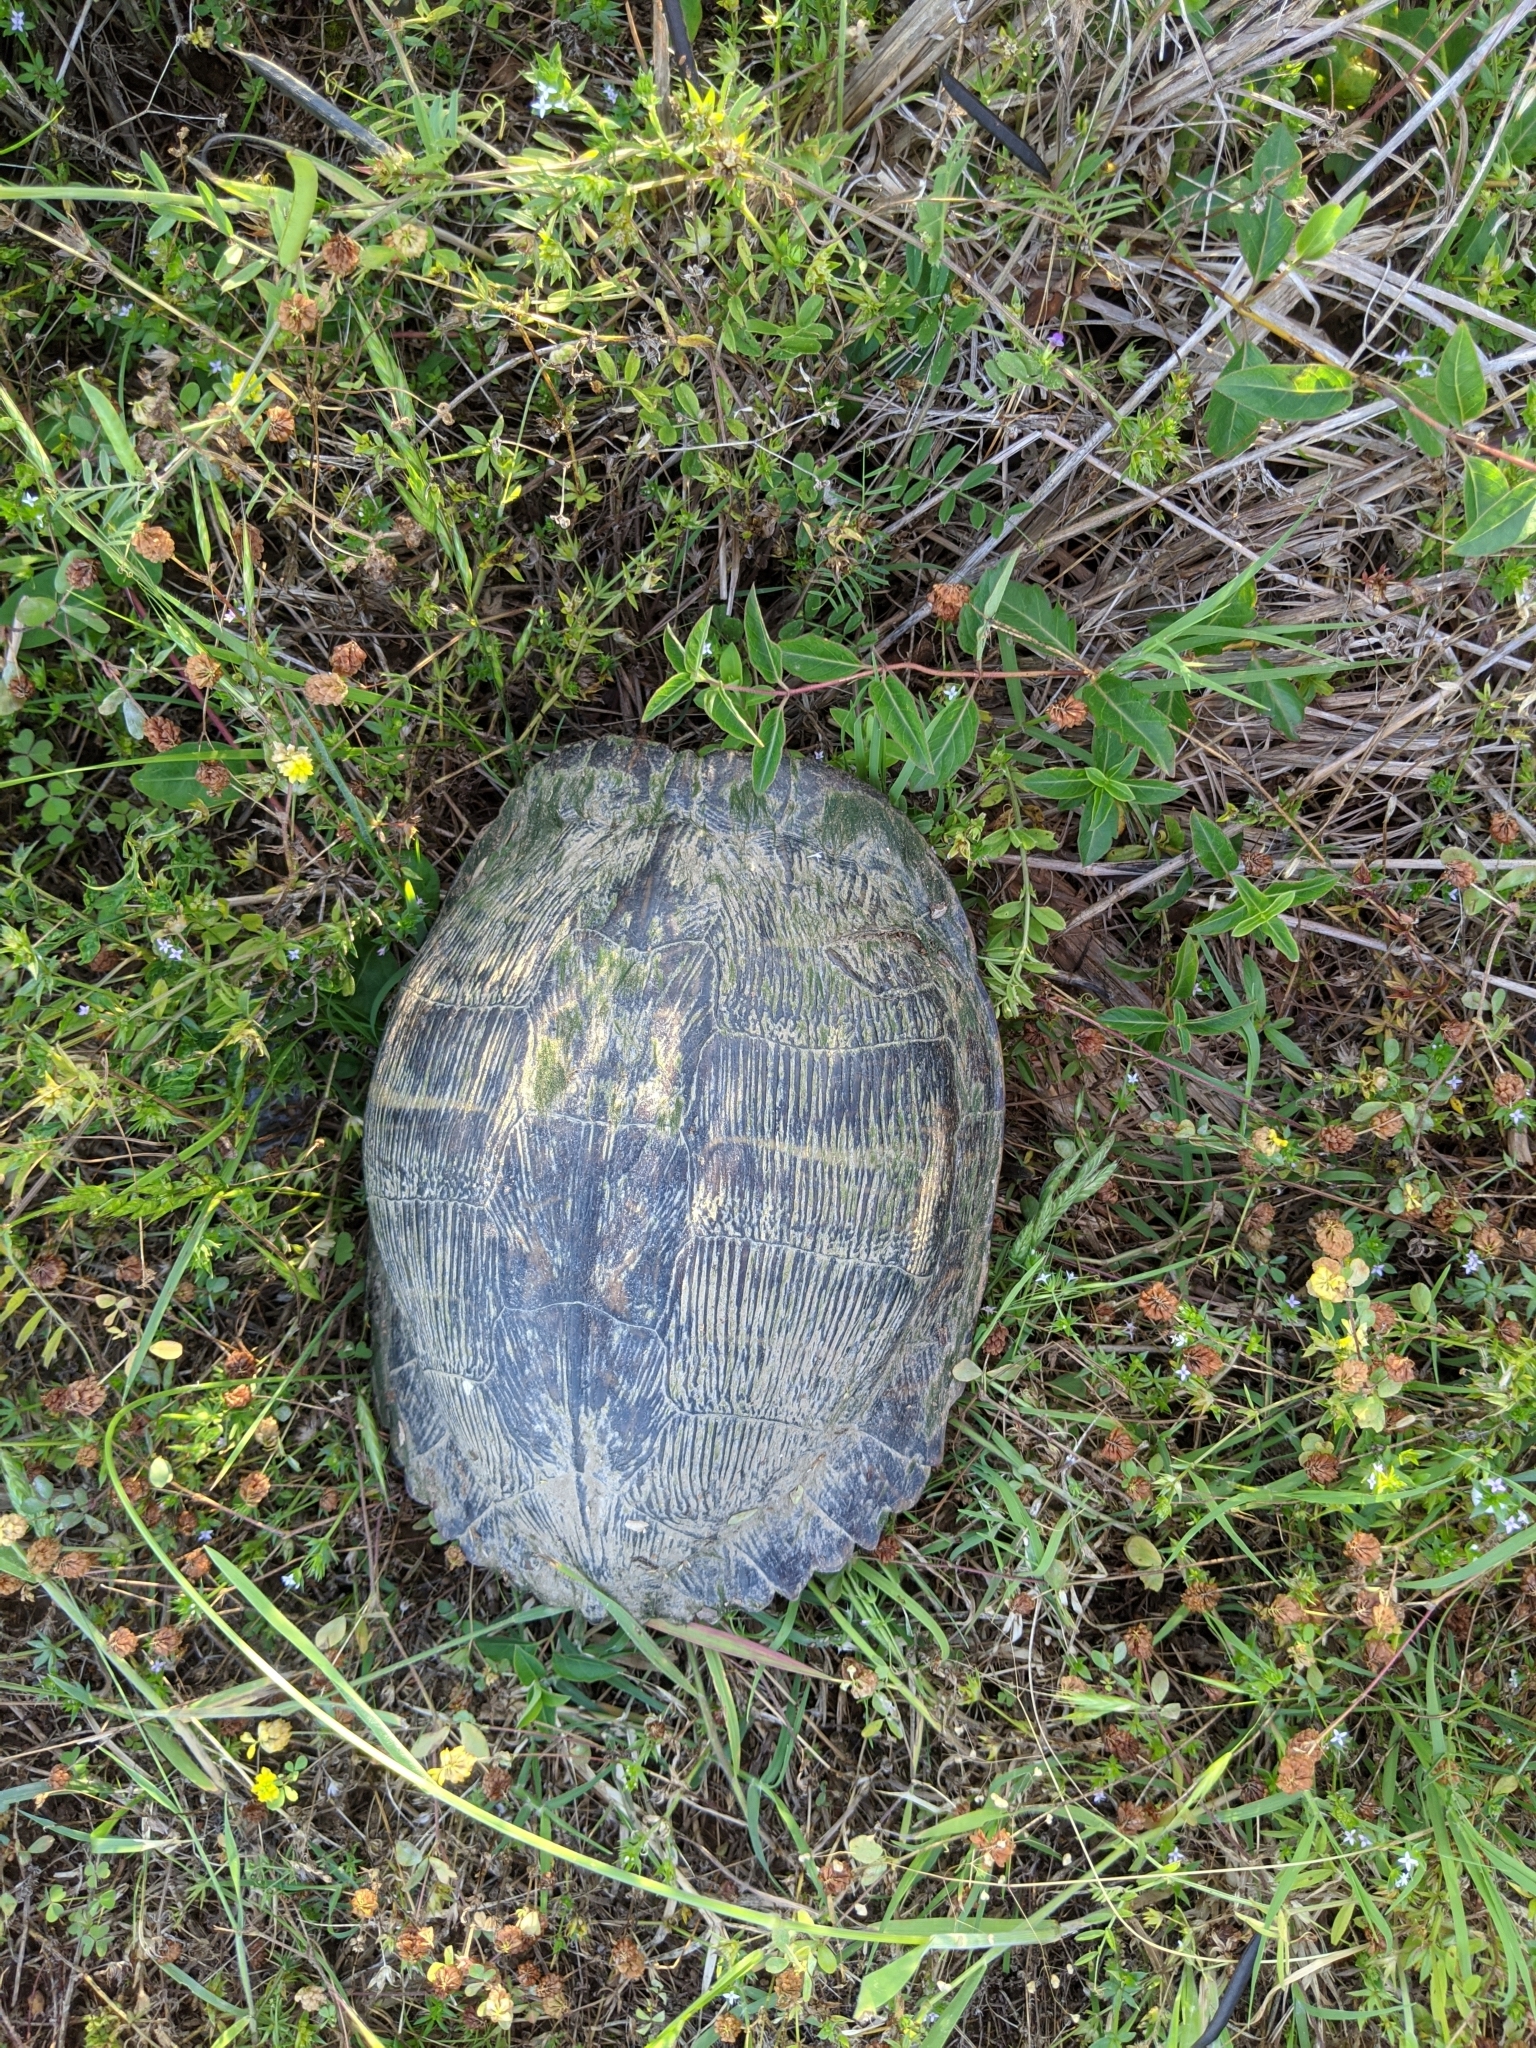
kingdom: Animalia
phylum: Chordata
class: Testudines
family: Emydidae
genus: Trachemys
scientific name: Trachemys scripta
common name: Slider
